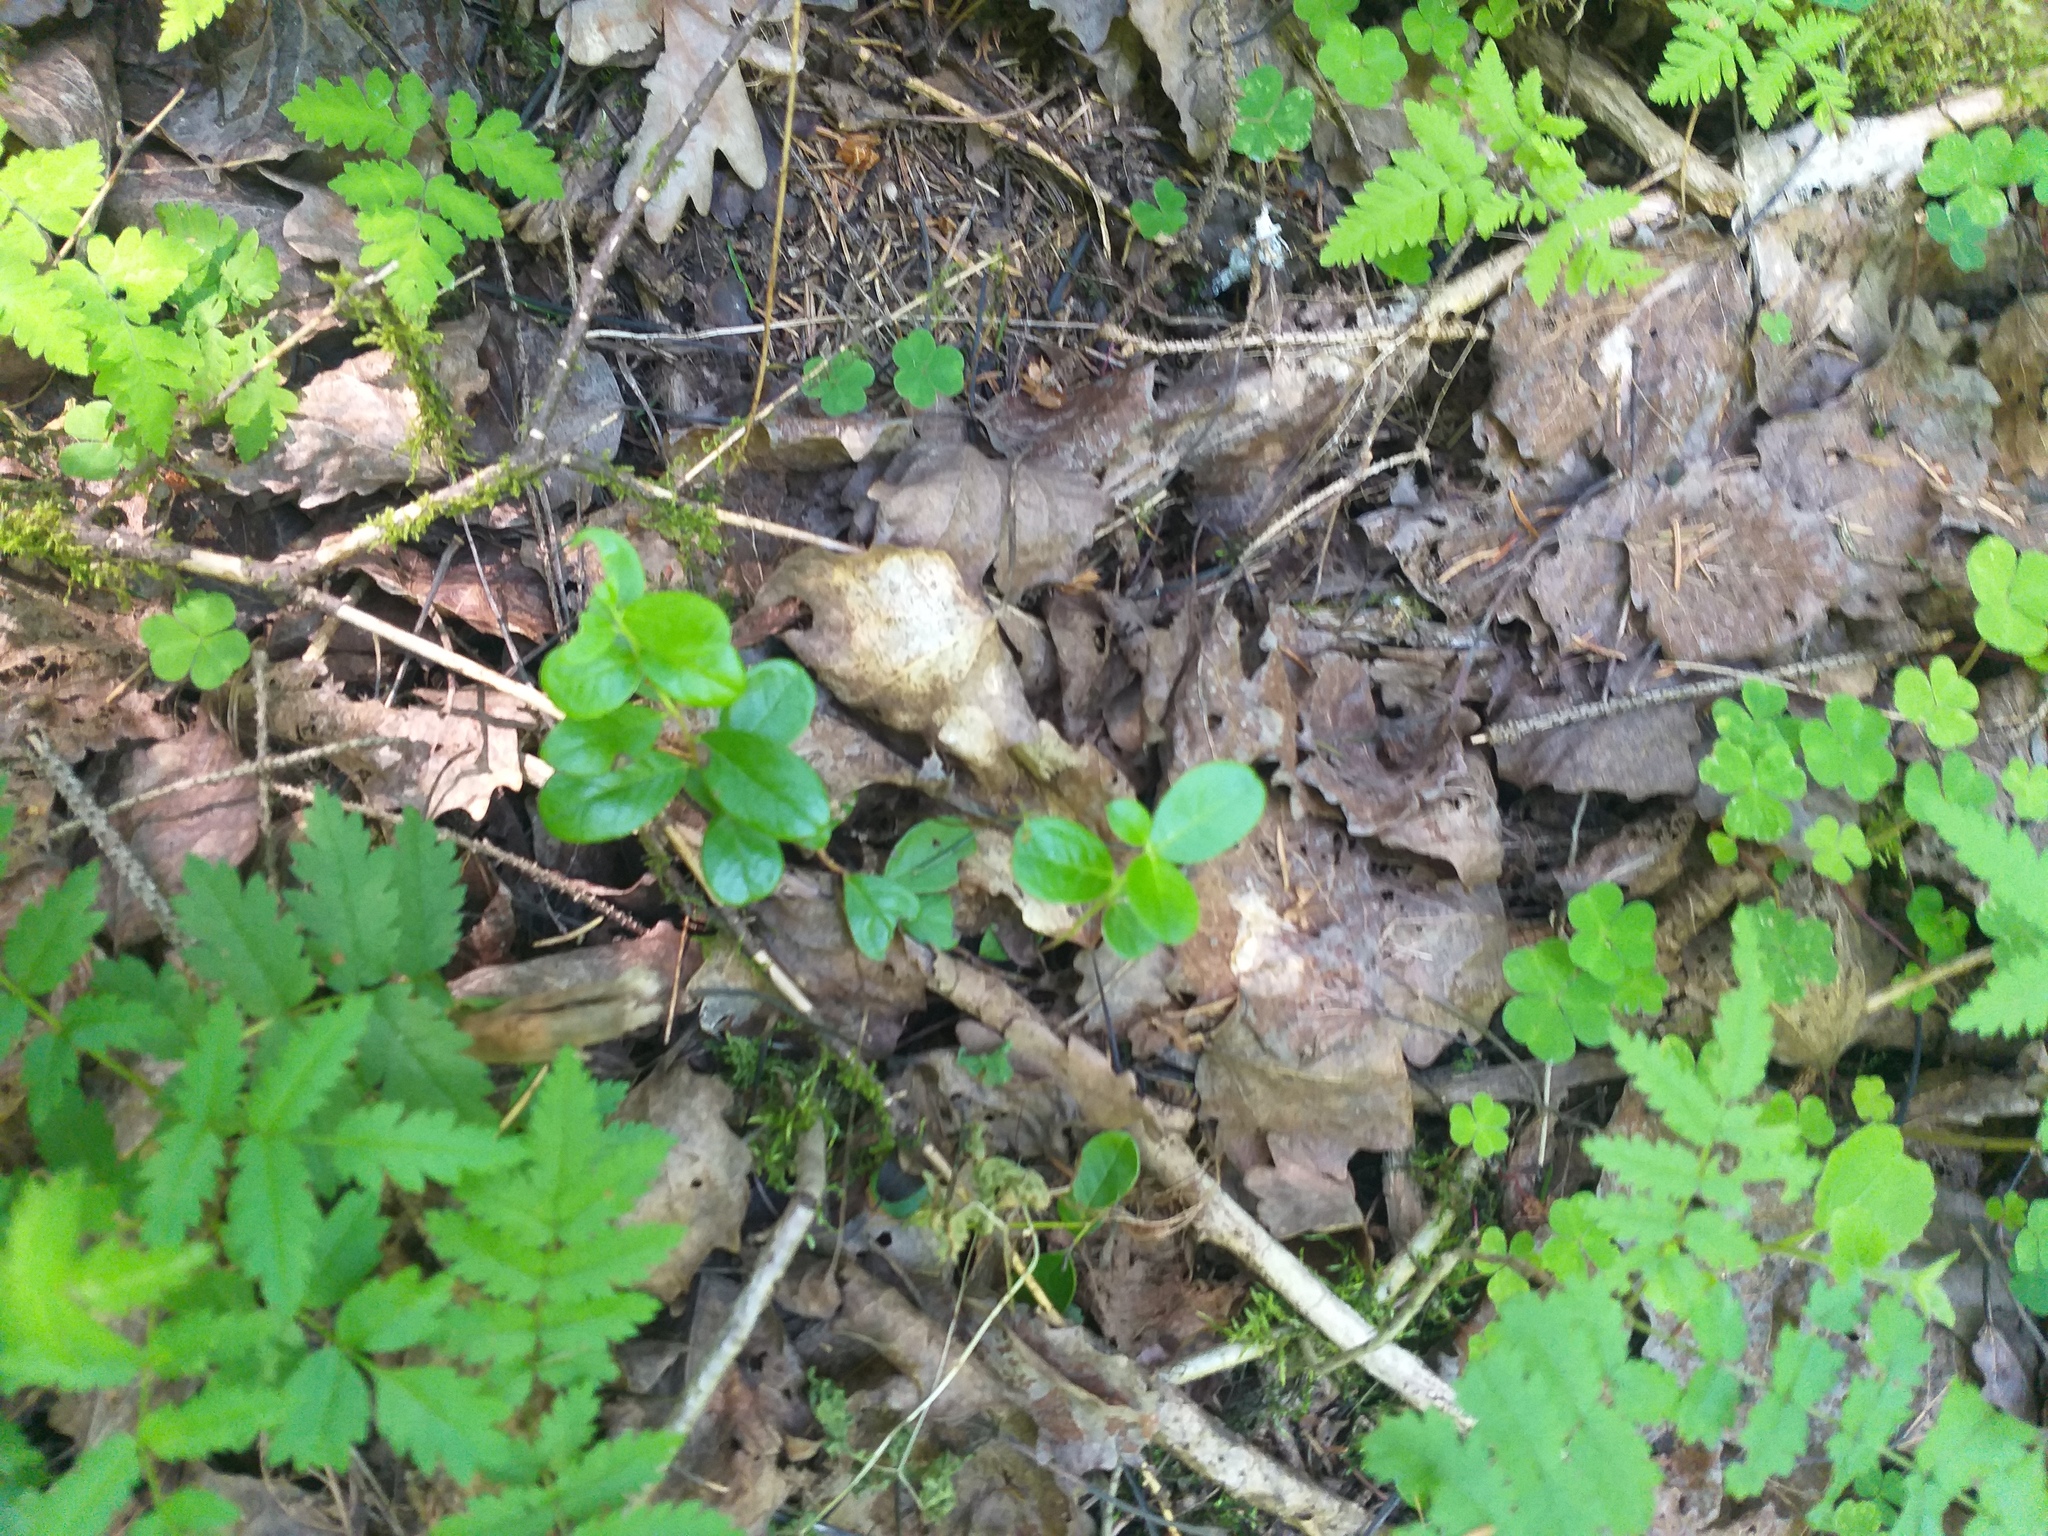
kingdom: Plantae
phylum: Tracheophyta
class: Magnoliopsida
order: Ericales
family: Ericaceae
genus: Vaccinium
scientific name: Vaccinium vitis-idaea
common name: Cowberry
